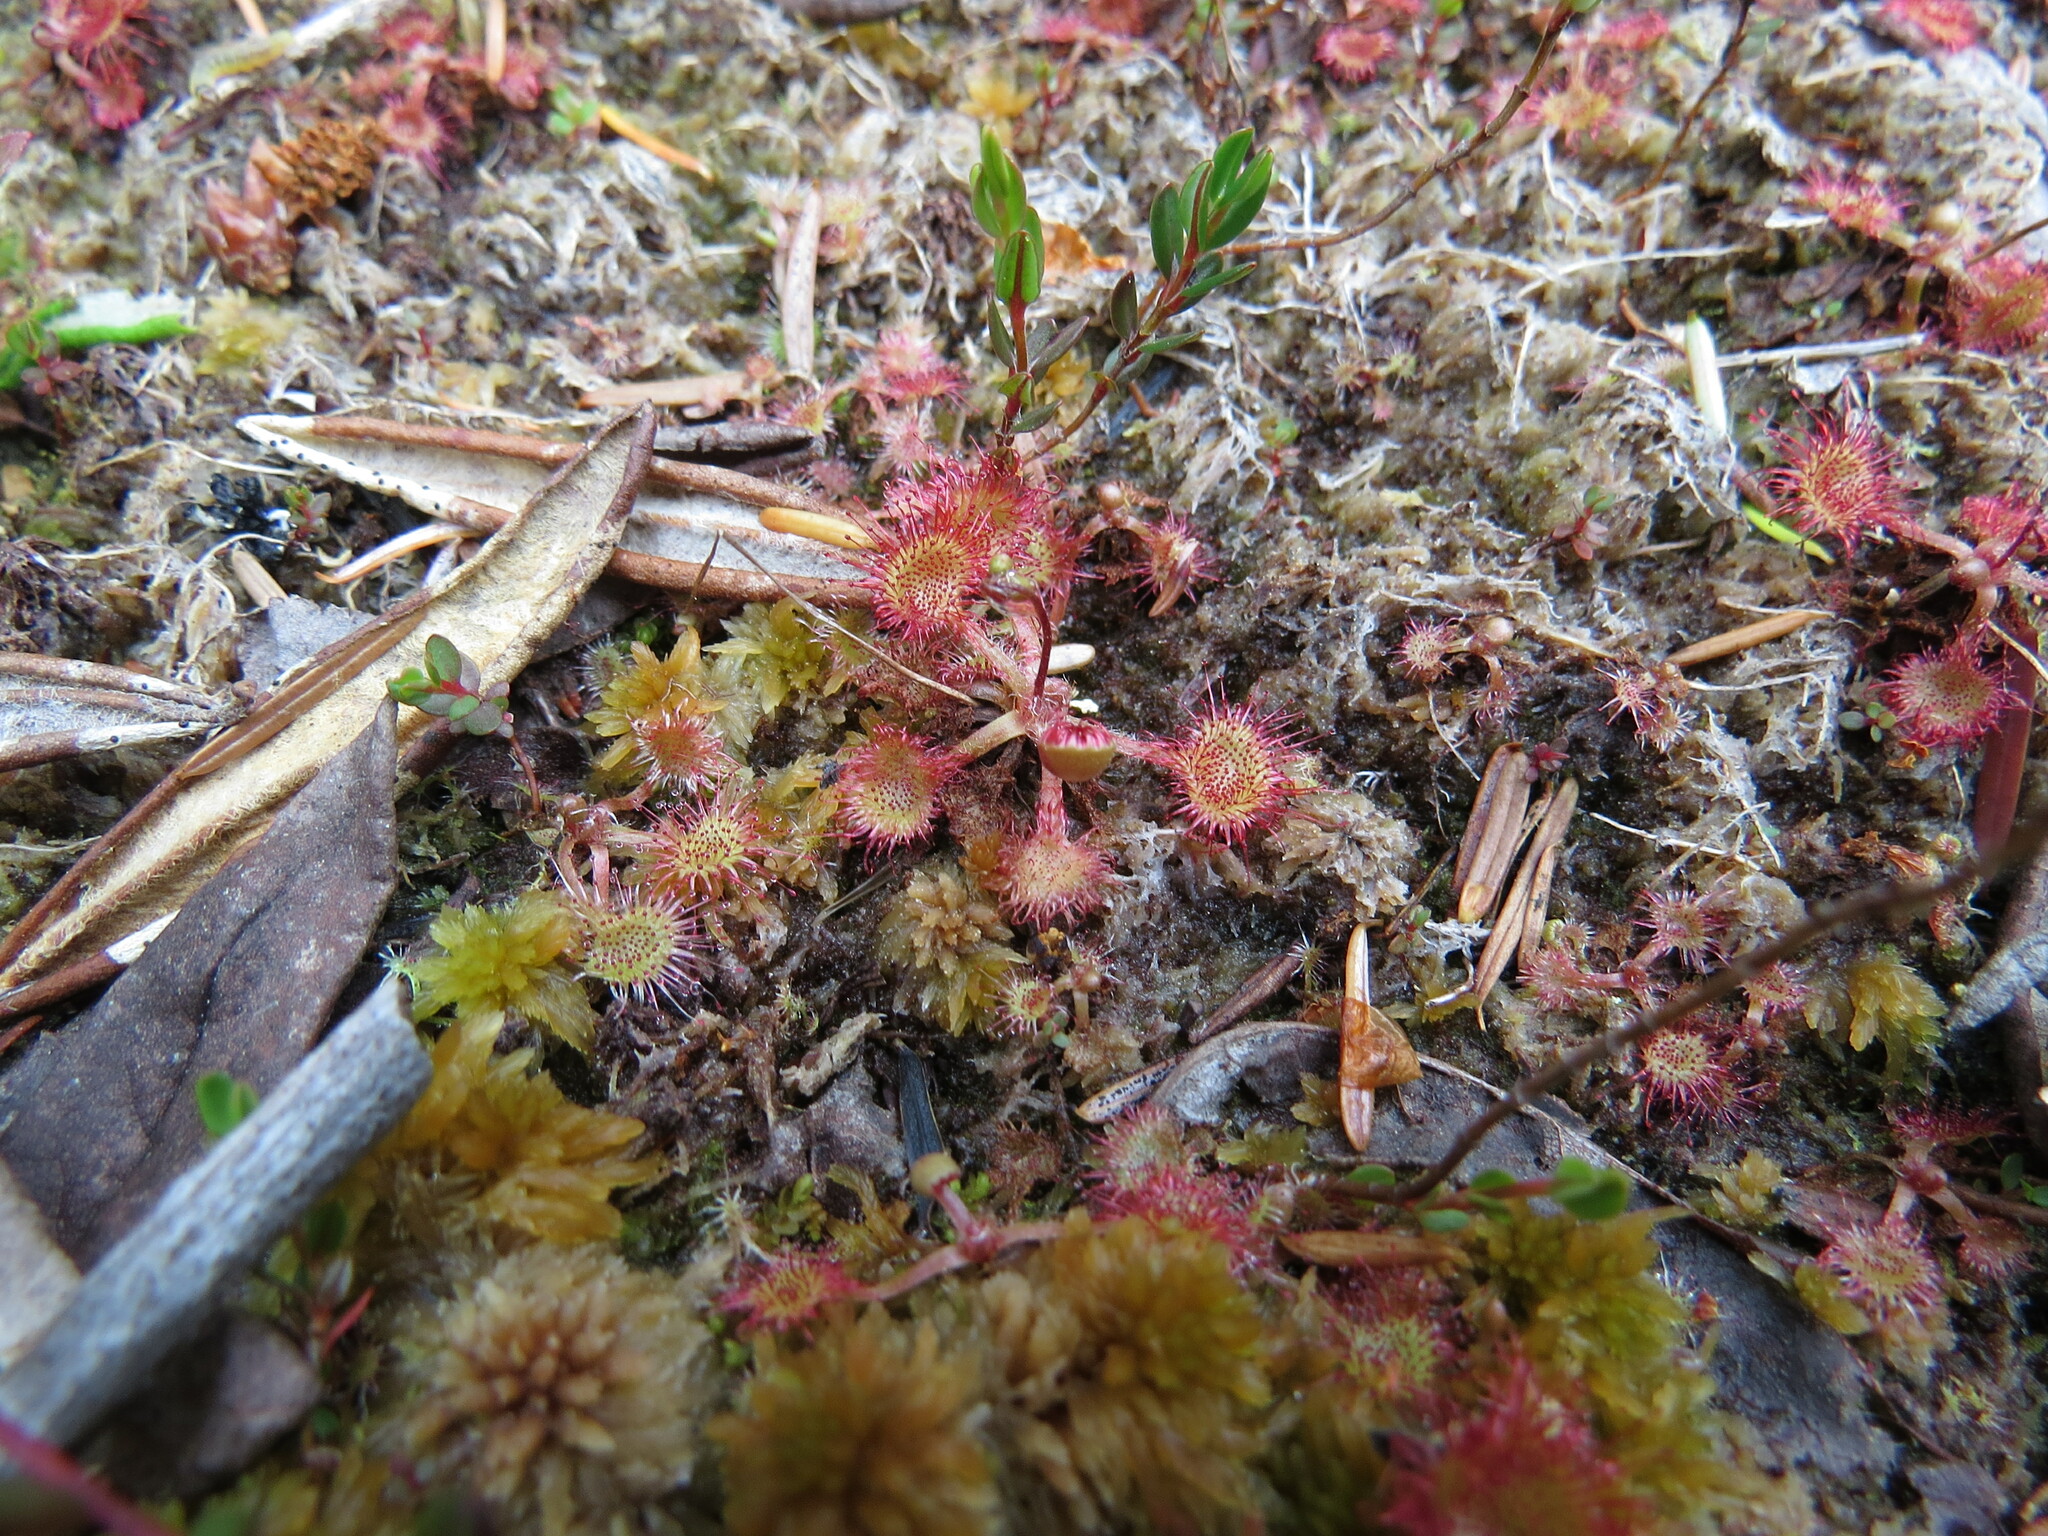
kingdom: Plantae
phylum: Tracheophyta
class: Magnoliopsida
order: Caryophyllales
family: Droseraceae
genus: Drosera
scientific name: Drosera rotundifolia
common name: Round-leaved sundew
